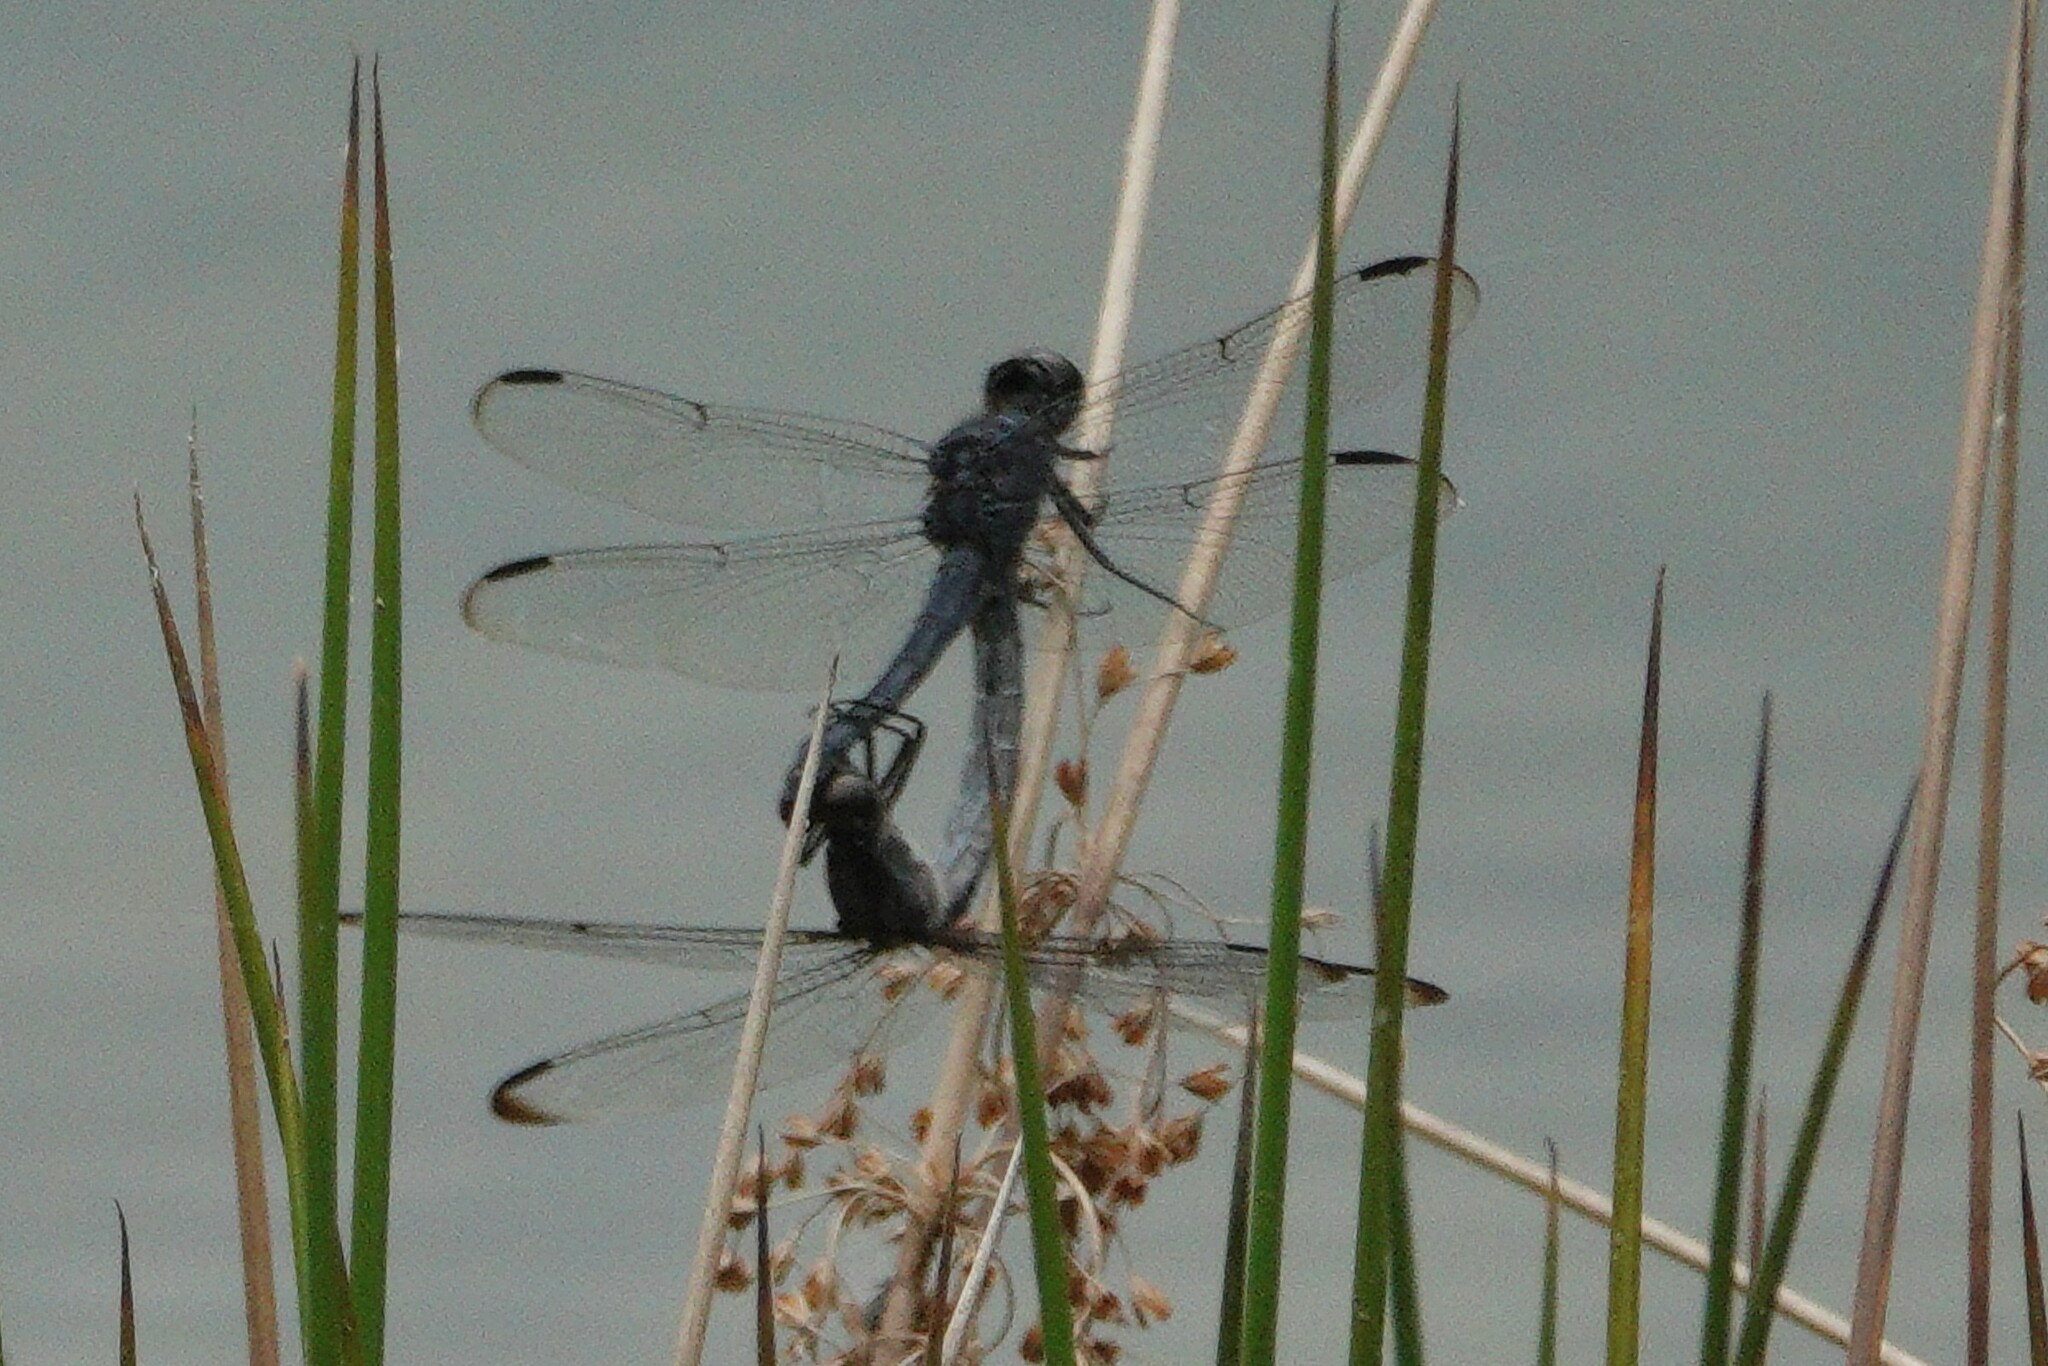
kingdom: Animalia
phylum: Arthropoda
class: Insecta
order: Odonata
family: Libellulidae
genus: Libellula
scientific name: Libellula incesta
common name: Slaty skimmer
